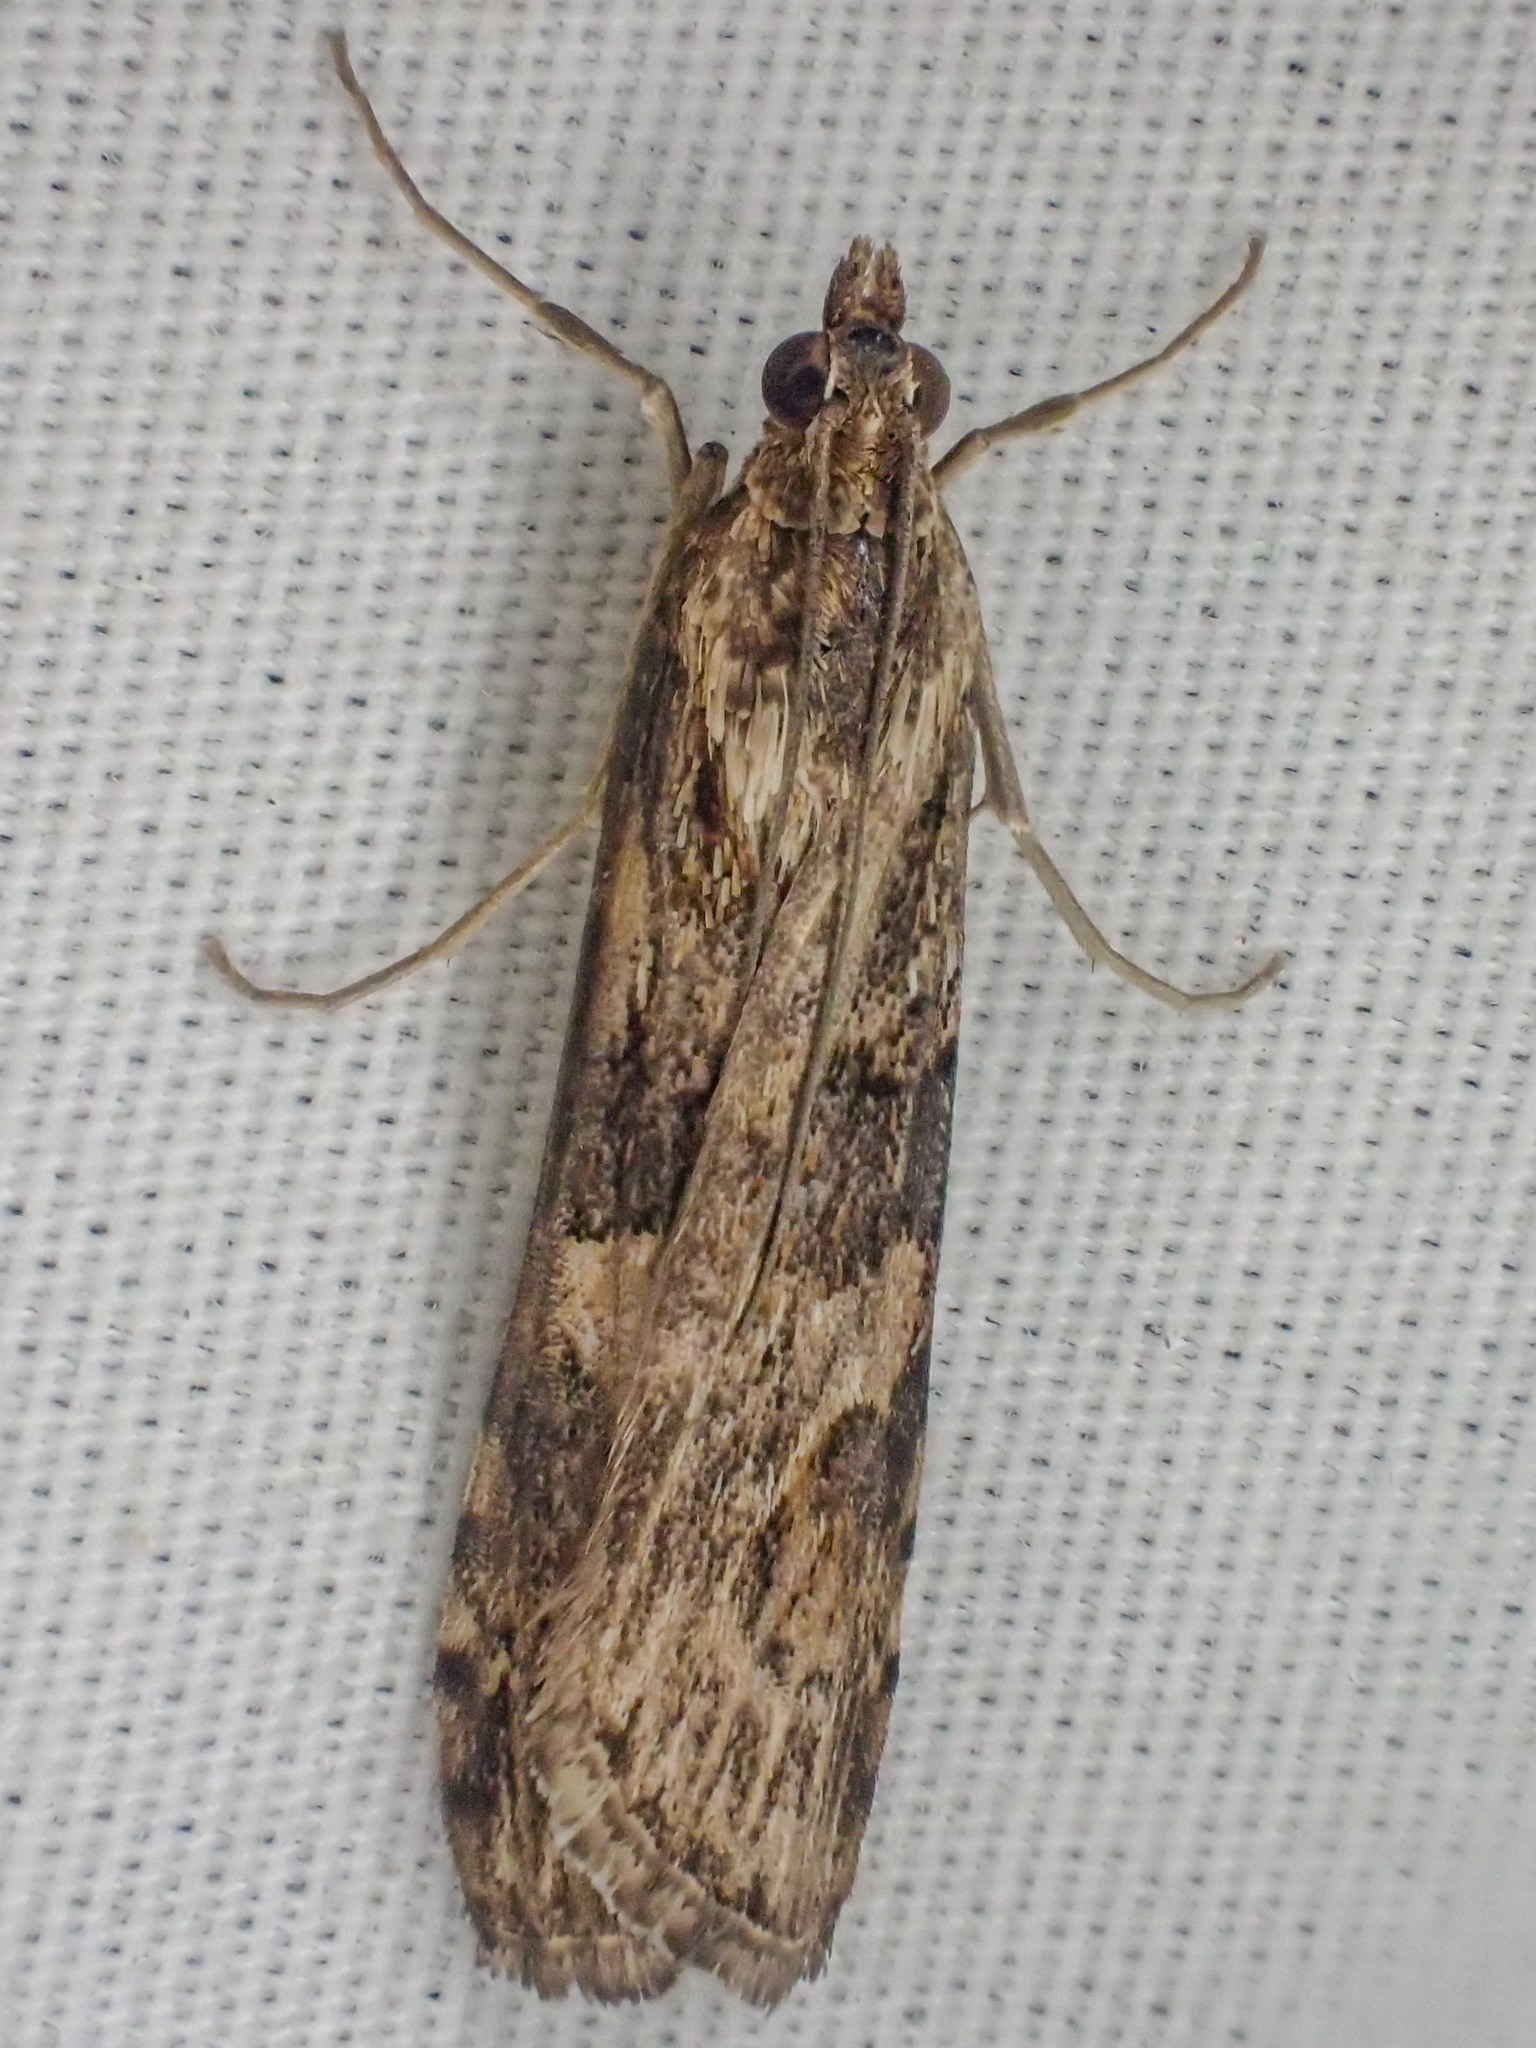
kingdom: Animalia
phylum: Arthropoda
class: Insecta
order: Lepidoptera
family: Crambidae
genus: Nomophila
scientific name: Nomophila nearctica
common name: American rush veneer
